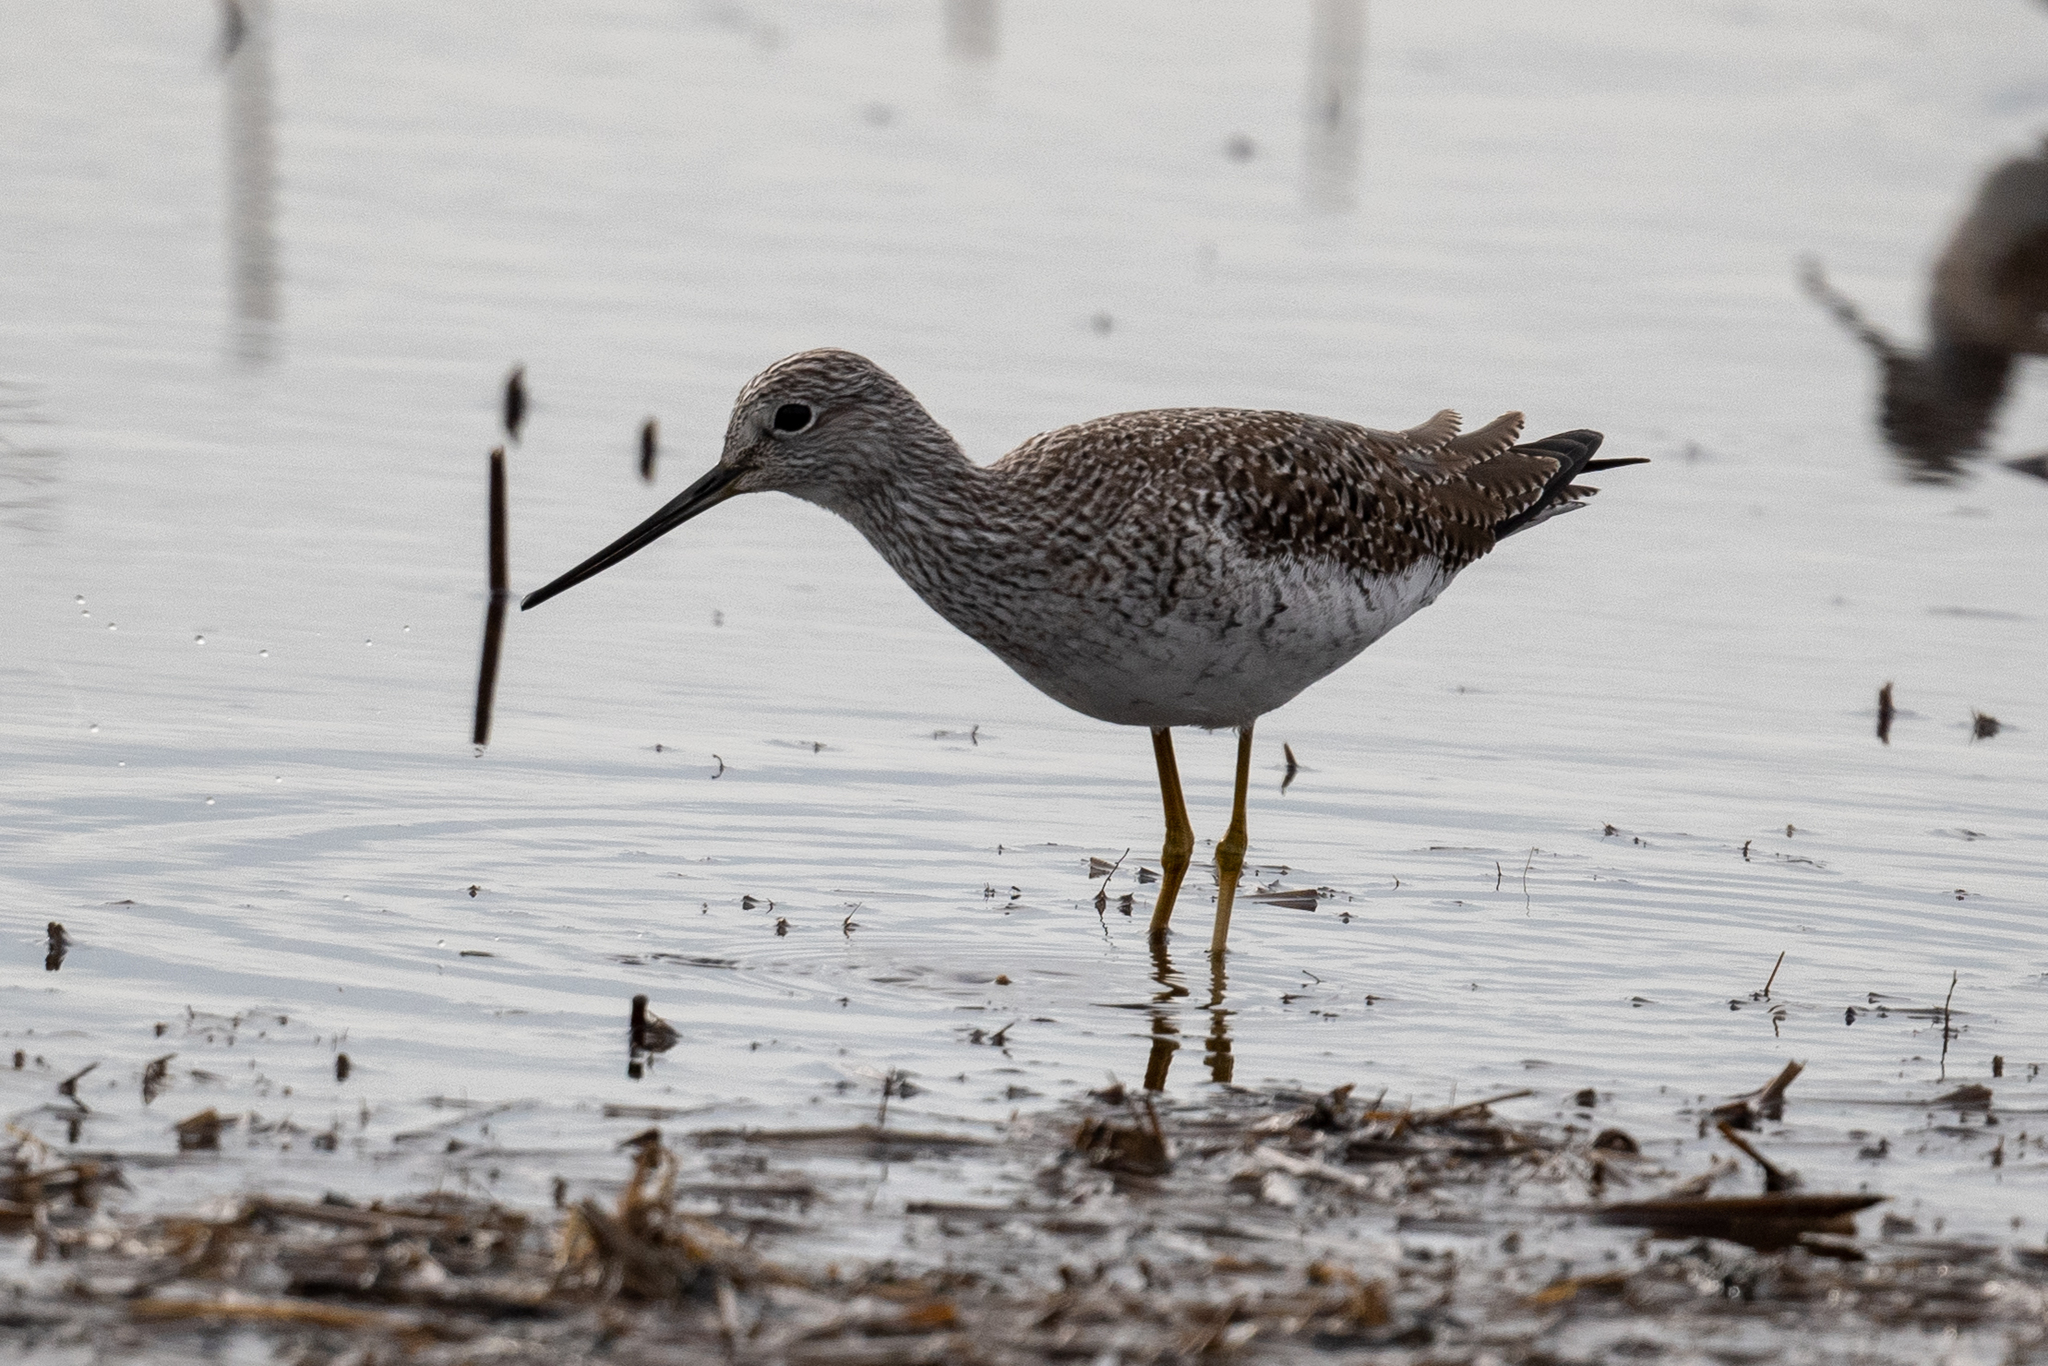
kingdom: Animalia
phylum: Chordata
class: Aves
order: Charadriiformes
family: Scolopacidae
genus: Tringa
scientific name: Tringa melanoleuca
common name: Greater yellowlegs
